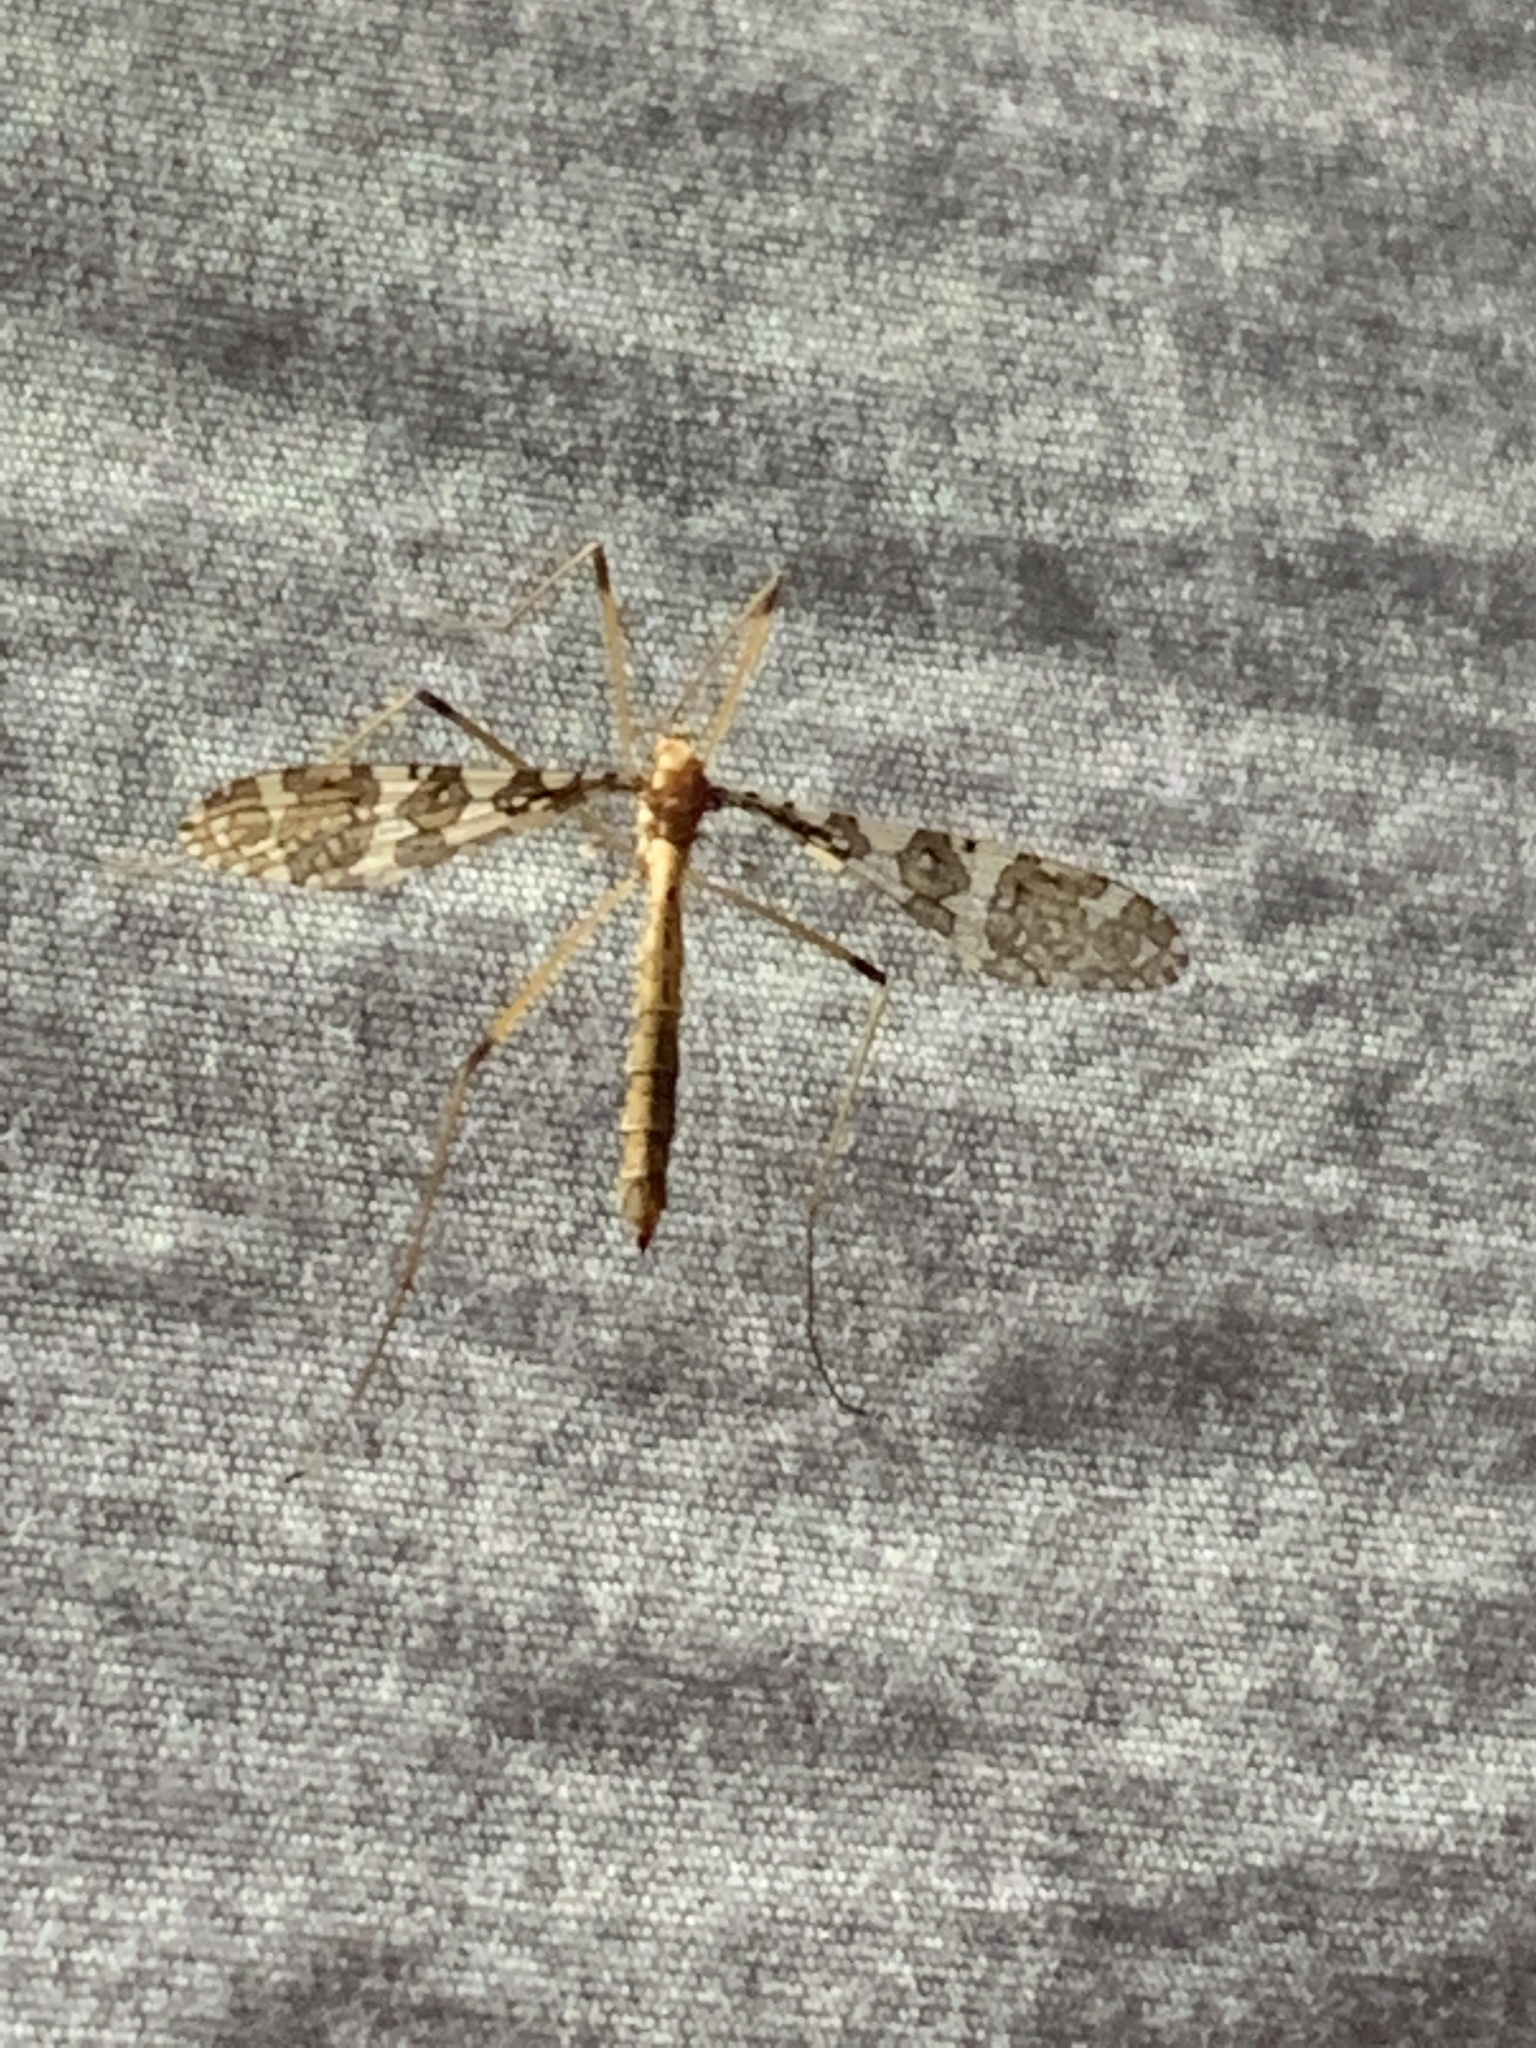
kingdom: Animalia
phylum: Arthropoda
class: Insecta
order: Diptera
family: Limoniidae
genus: Epiphragma
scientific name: Epiphragma fasciapenne
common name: Band-winged crane fly
